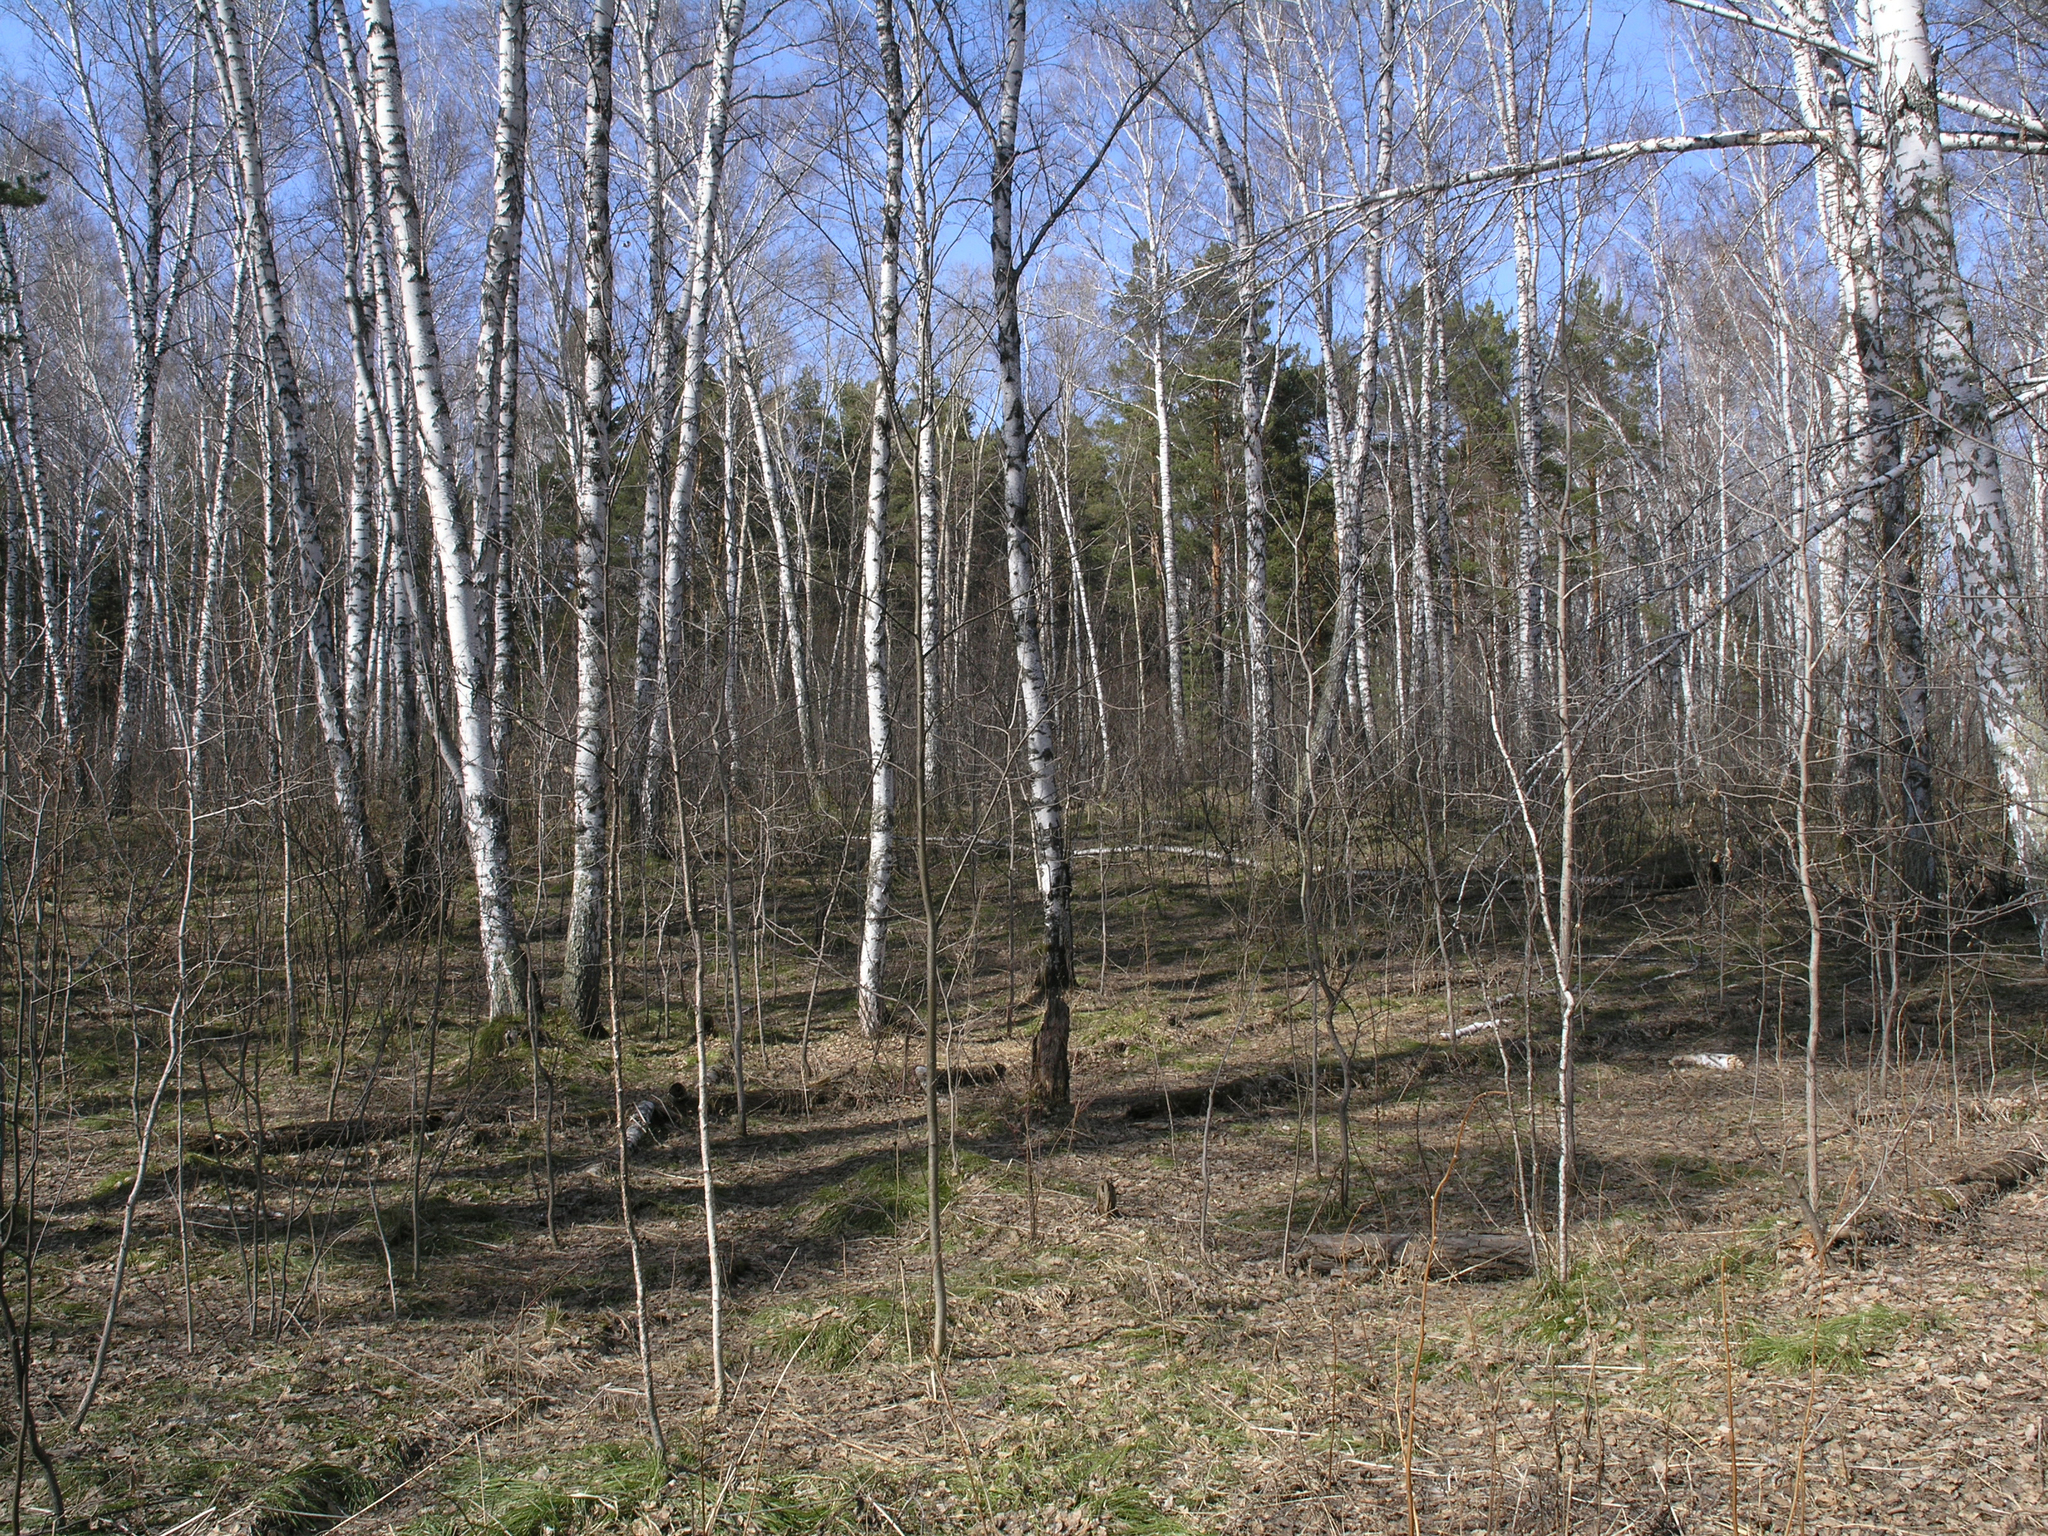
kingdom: Plantae
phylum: Tracheophyta
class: Magnoliopsida
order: Fagales
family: Betulaceae
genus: Betula
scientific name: Betula pendula
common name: Silver birch
